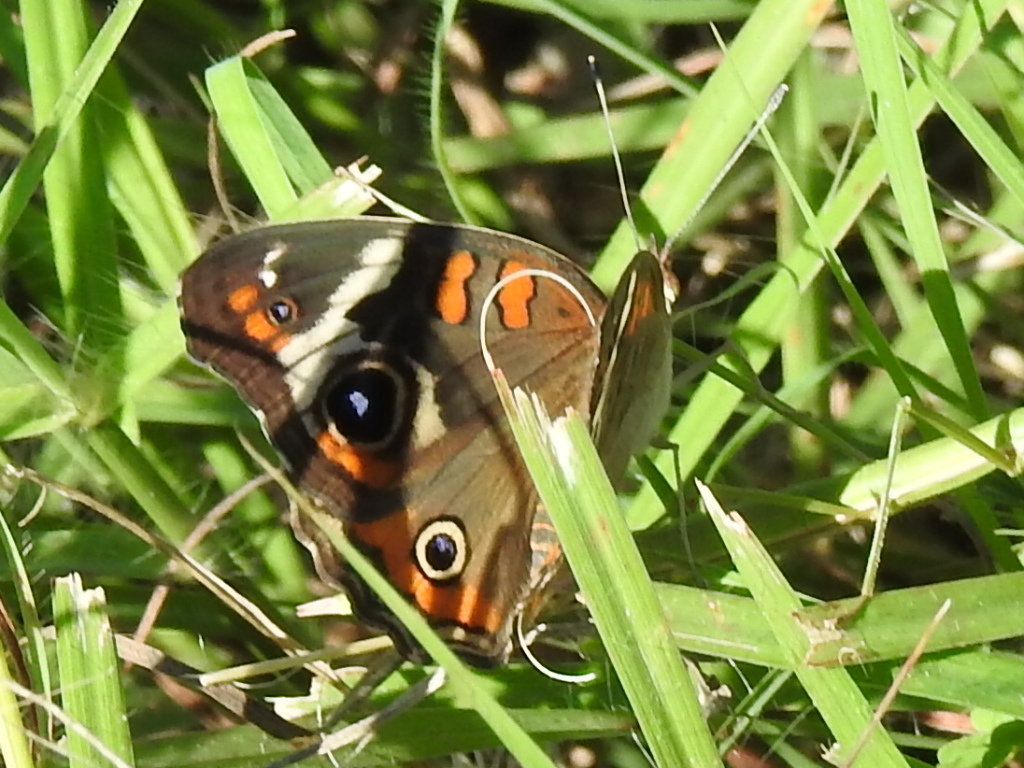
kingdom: Animalia
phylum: Arthropoda
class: Insecta
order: Lepidoptera
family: Nymphalidae
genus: Junonia
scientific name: Junonia coenia
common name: Common buckeye
